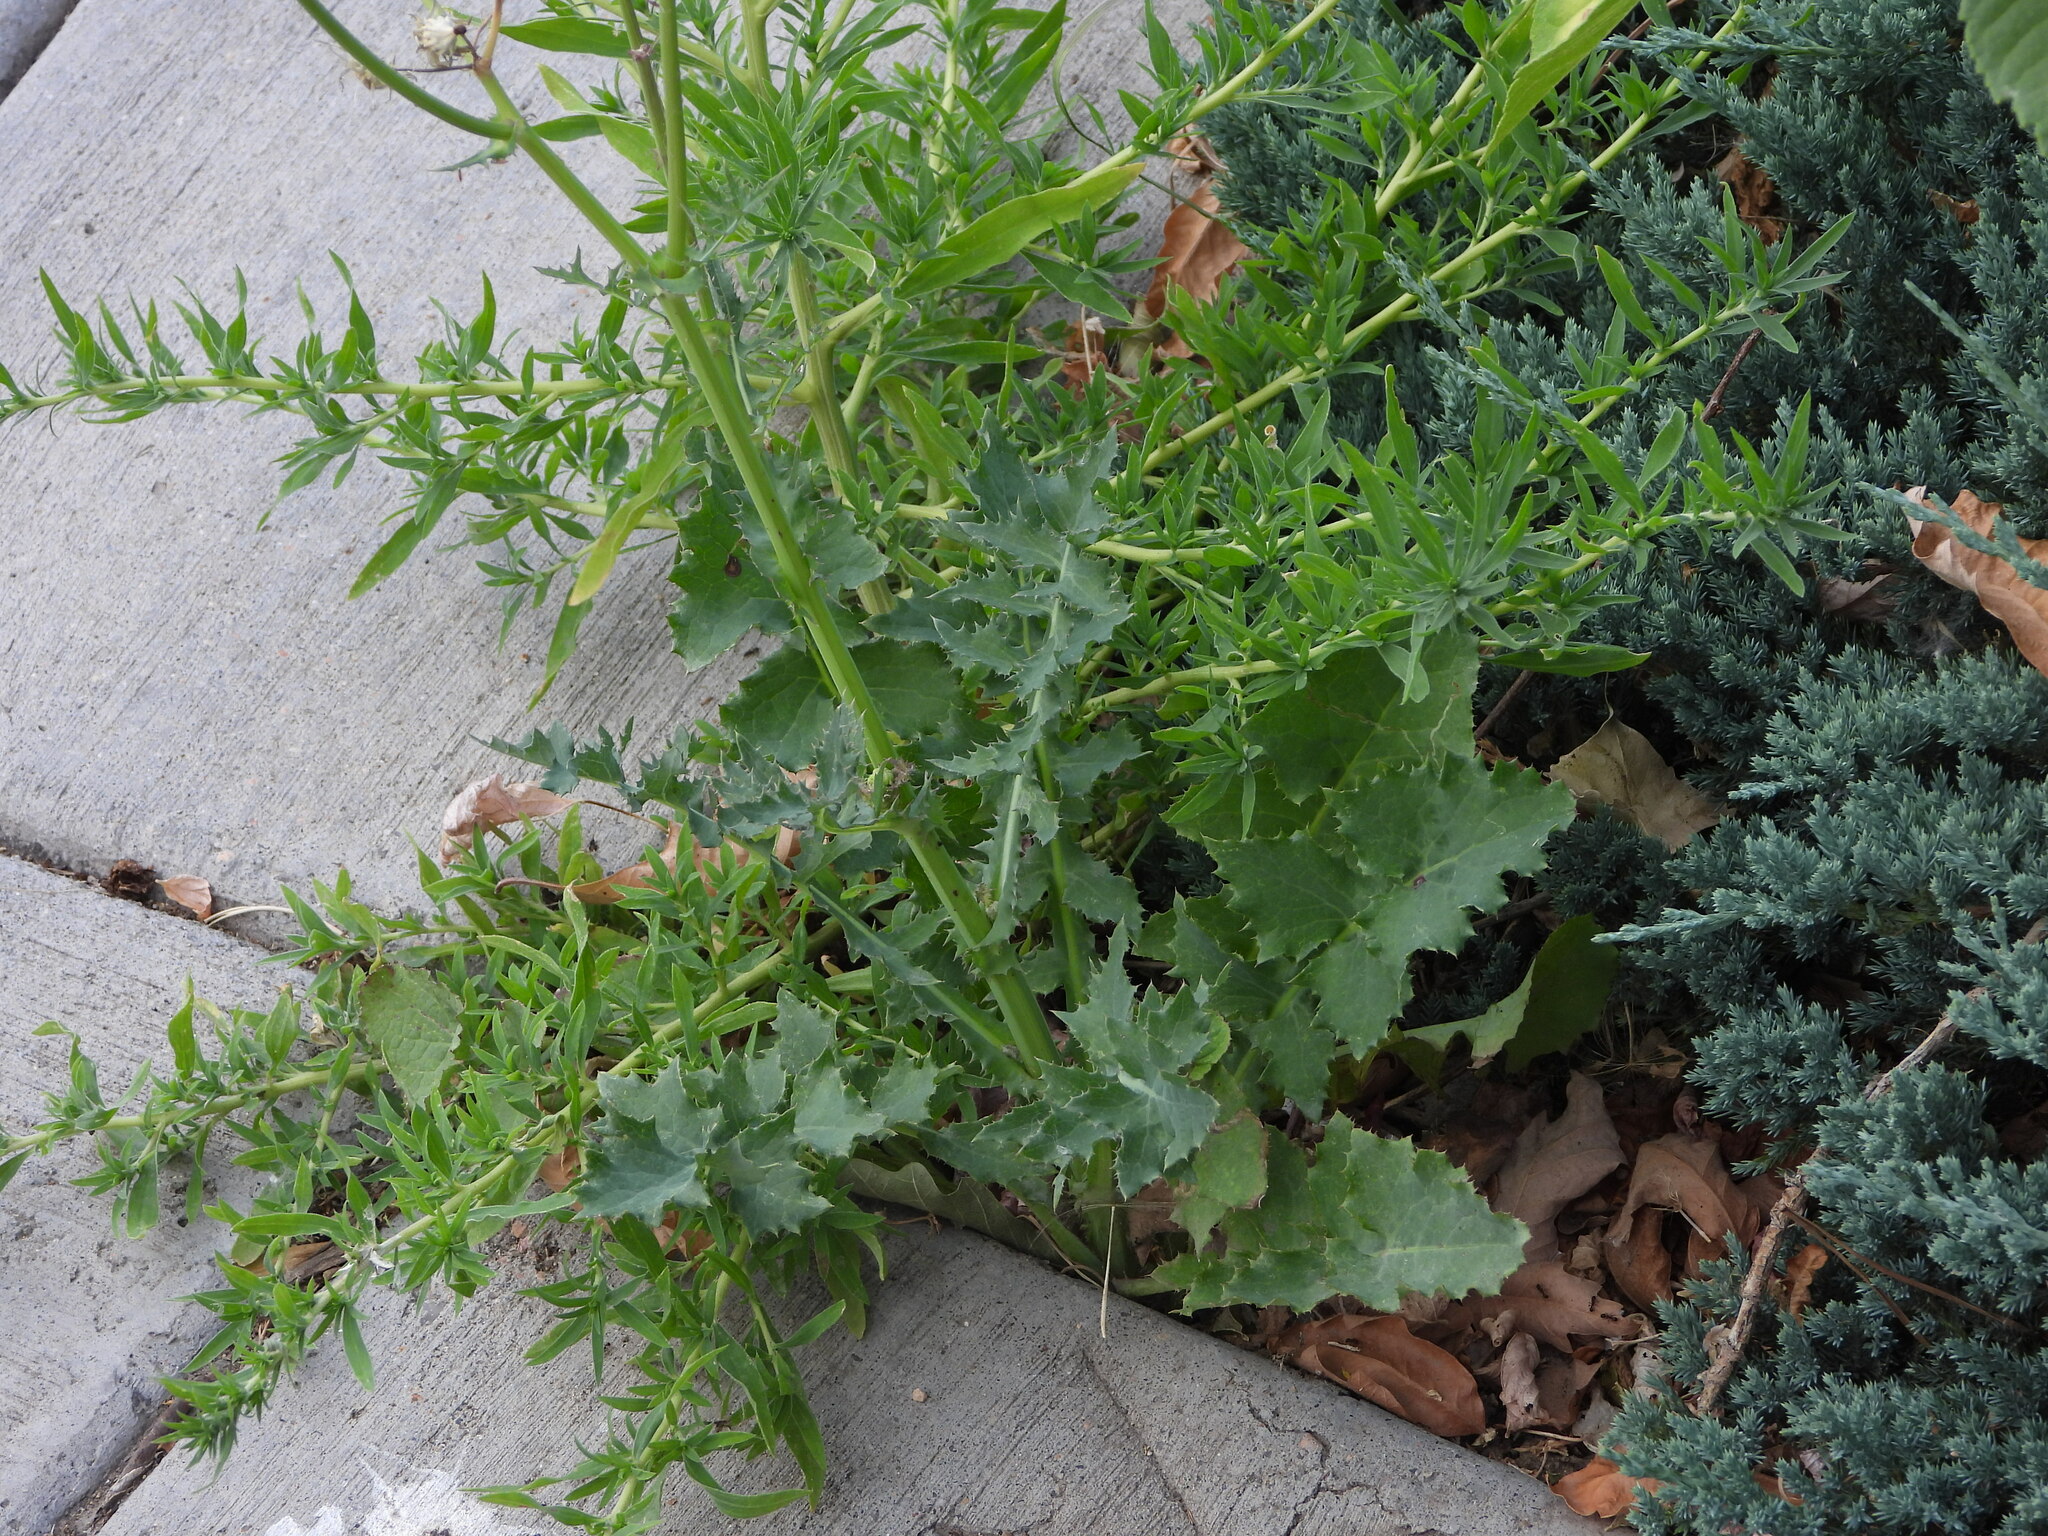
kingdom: Plantae
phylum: Tracheophyta
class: Magnoliopsida
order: Asterales
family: Asteraceae
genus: Sonchus
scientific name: Sonchus asper
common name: Prickly sow-thistle
